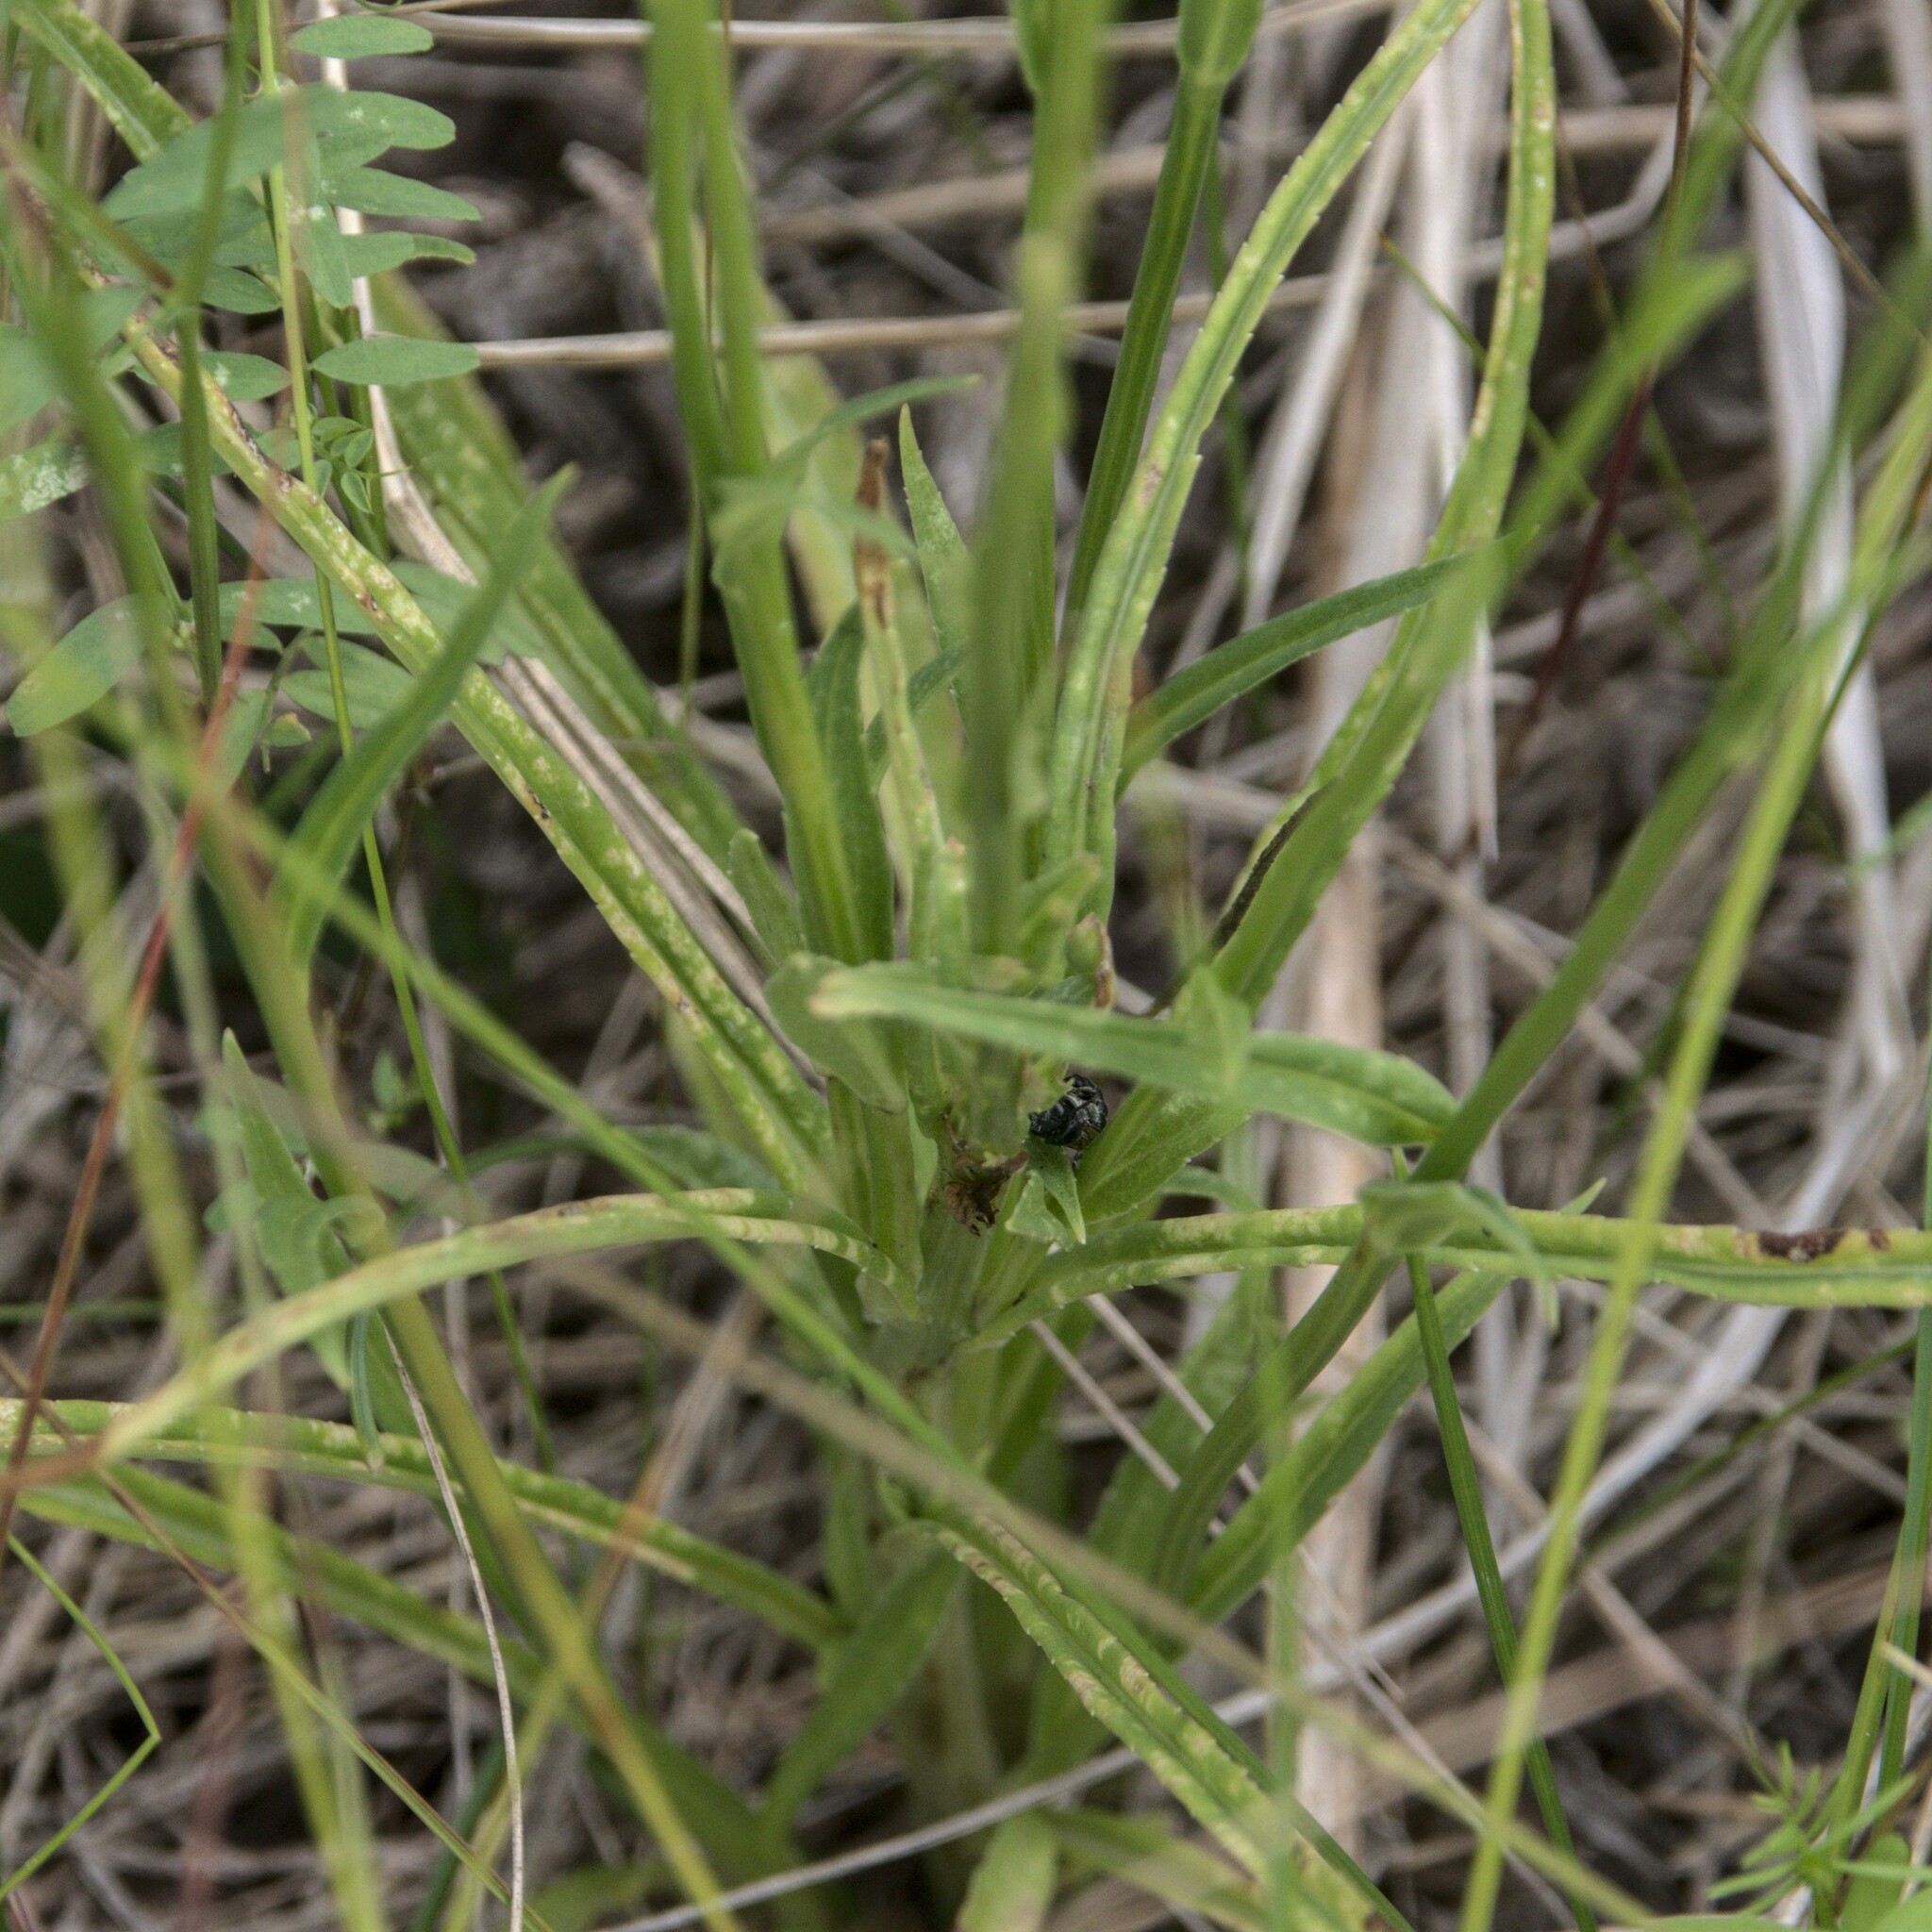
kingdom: Plantae
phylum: Tracheophyta
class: Magnoliopsida
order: Asterales
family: Campanulaceae
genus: Campanula
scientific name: Campanula persicifolia
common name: Peach-leaved bellflower
